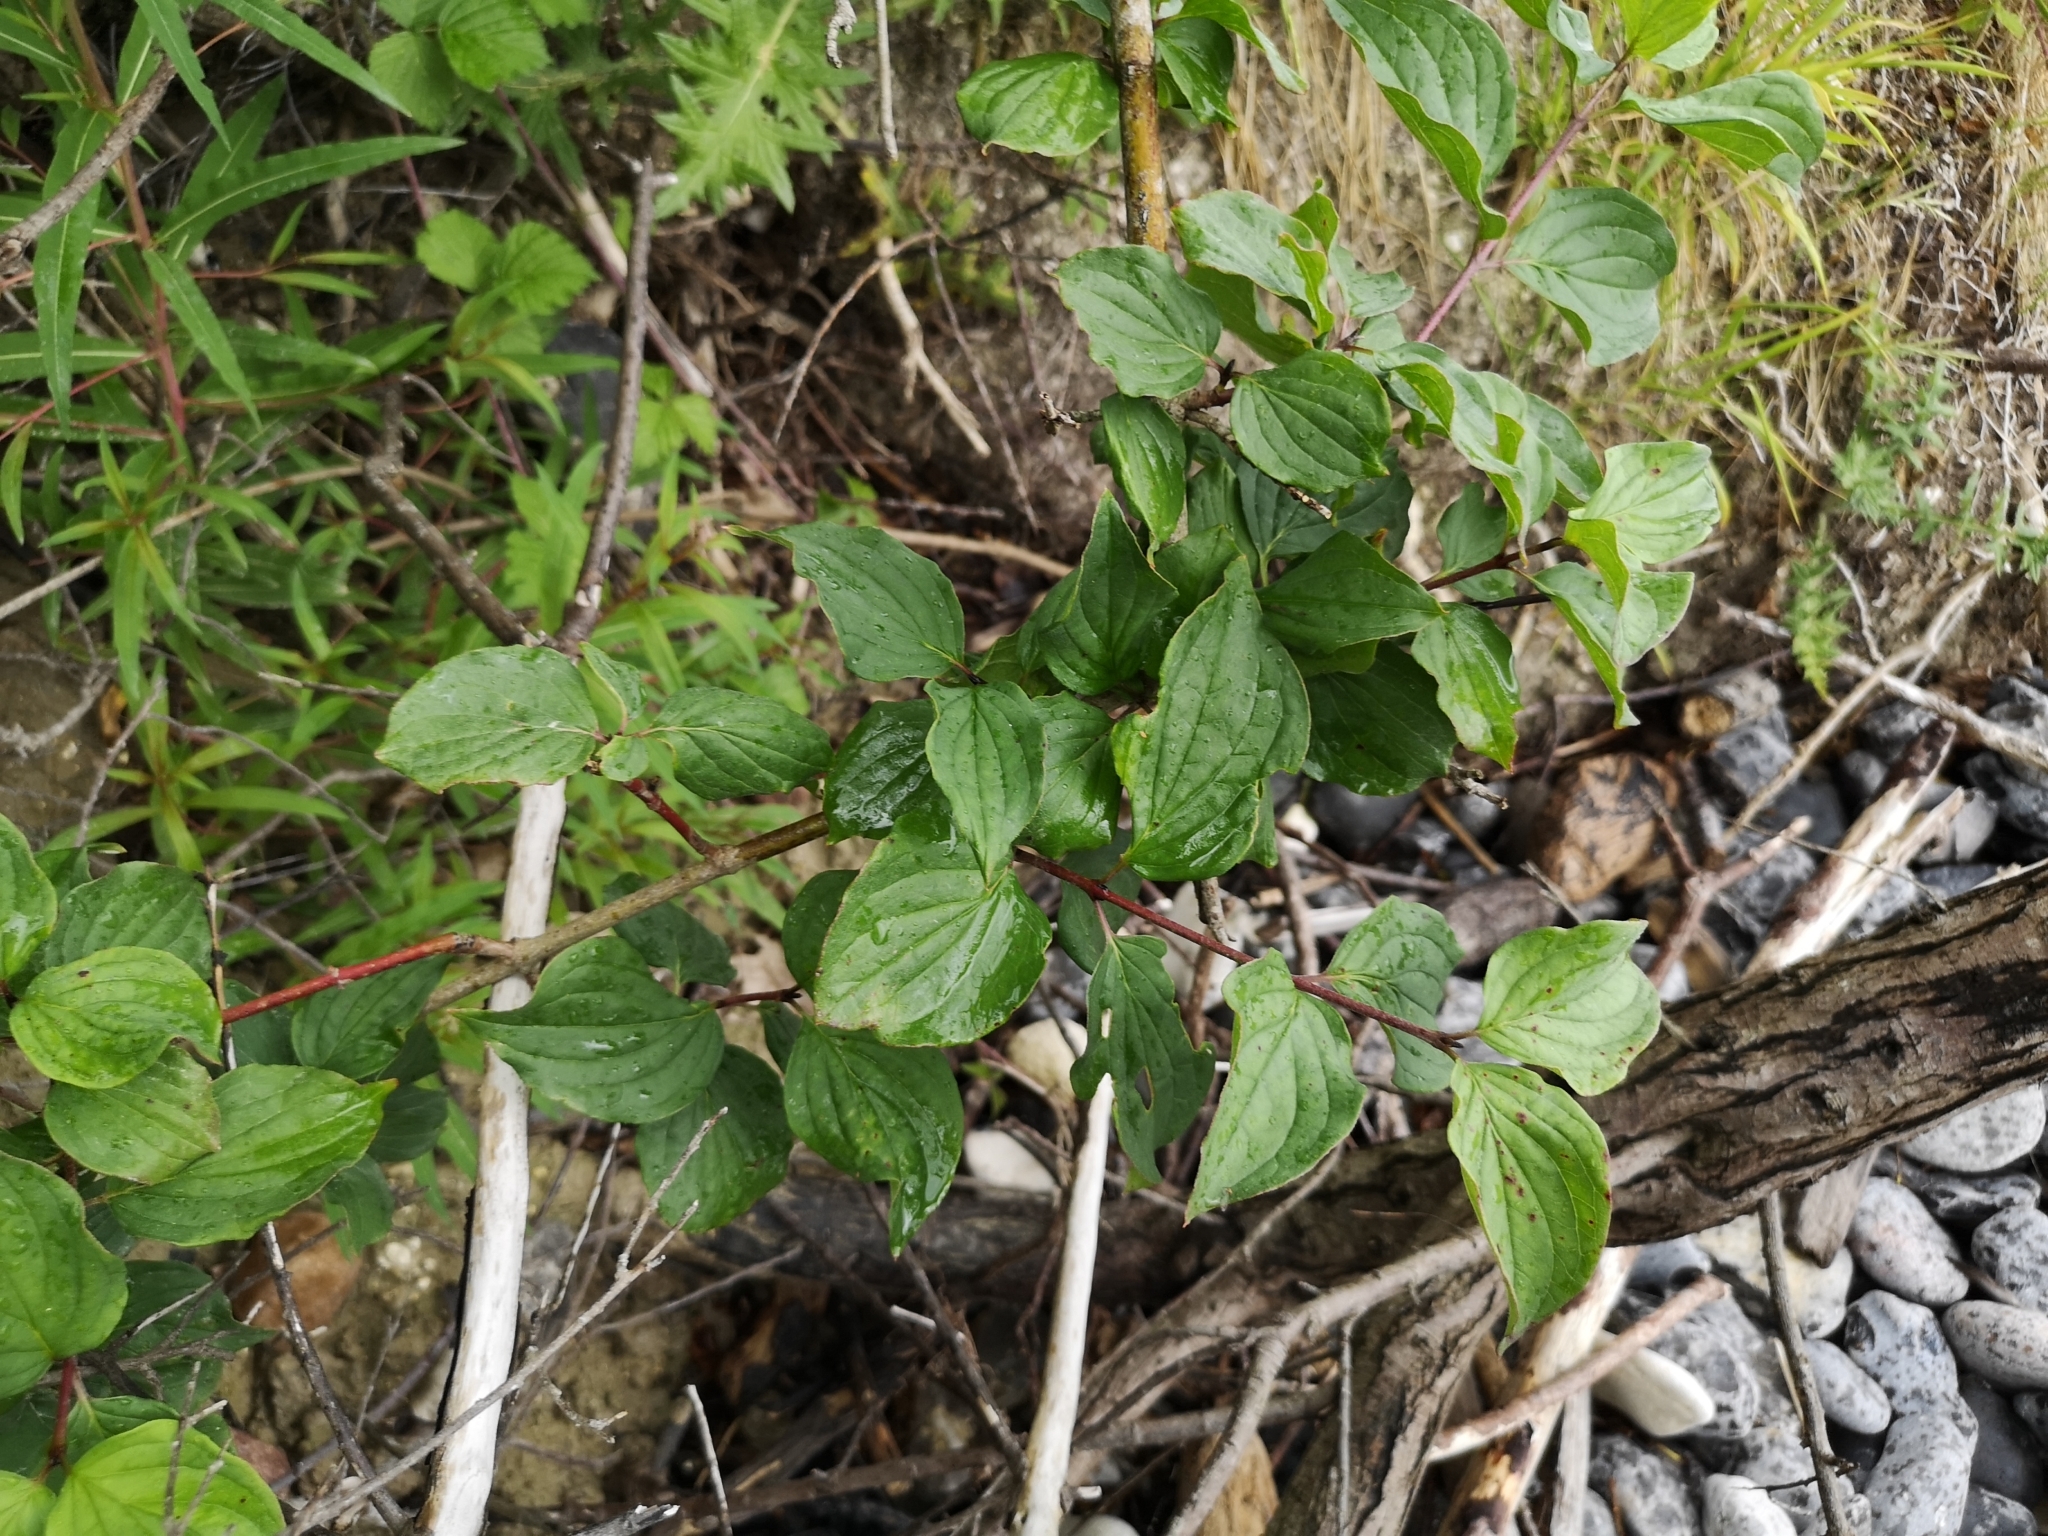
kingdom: Plantae
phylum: Tracheophyta
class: Magnoliopsida
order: Cornales
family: Cornaceae
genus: Cornus
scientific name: Cornus sanguinea
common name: Dogwood
